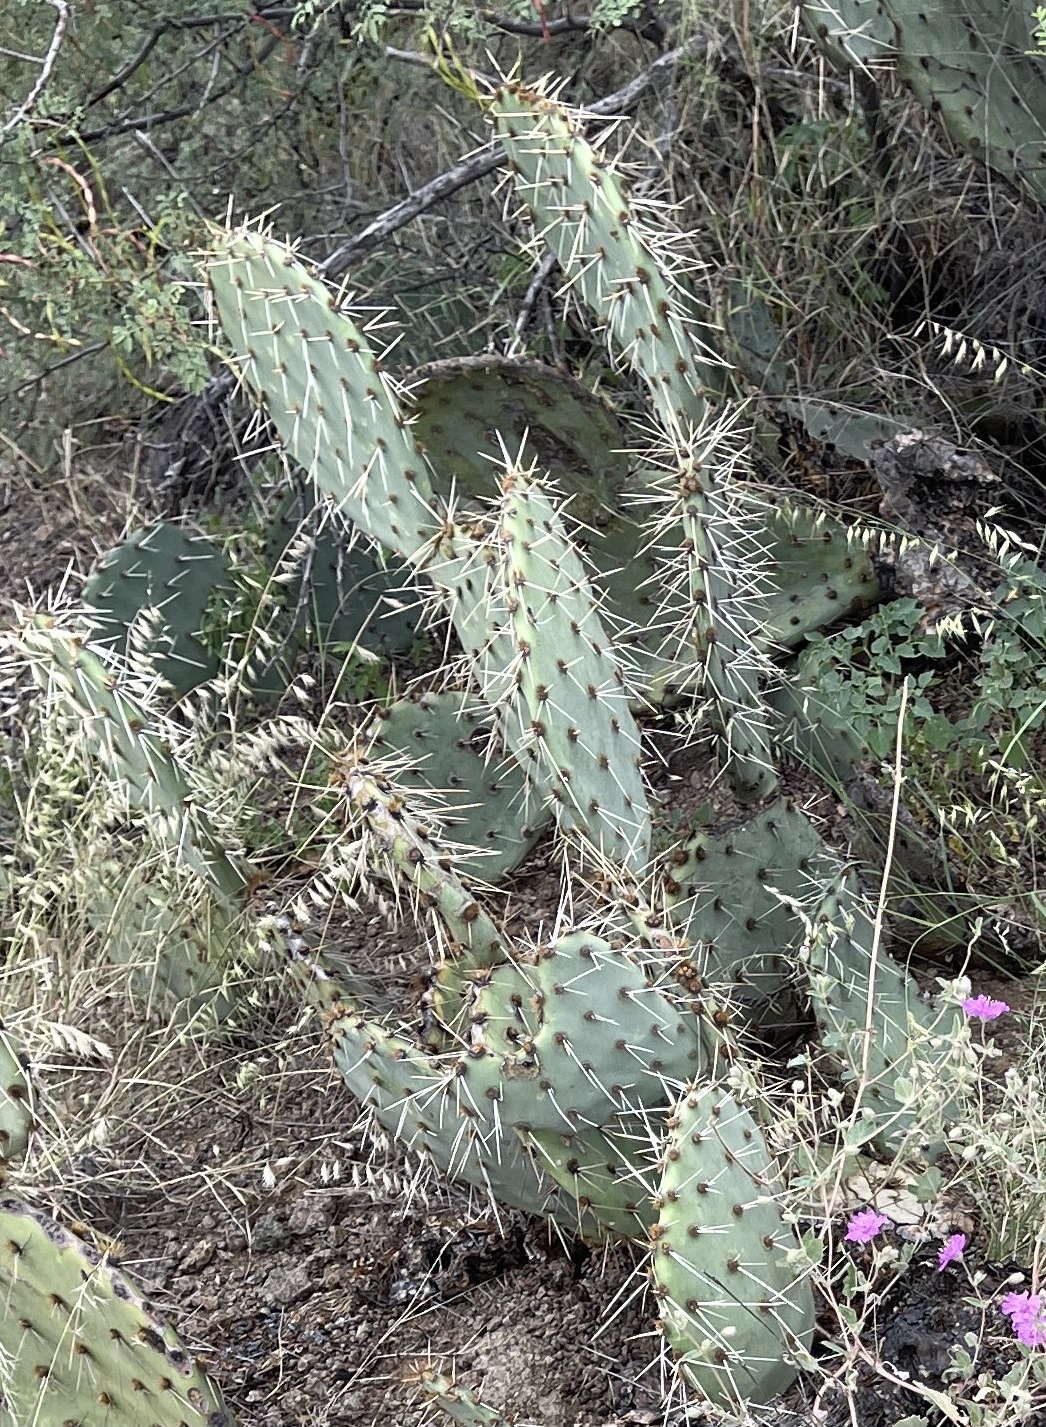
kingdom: Plantae
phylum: Tracheophyta
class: Magnoliopsida
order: Caryophyllales
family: Cactaceae
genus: Opuntia
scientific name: Opuntia phaeacantha
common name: New mexico prickly-pear
